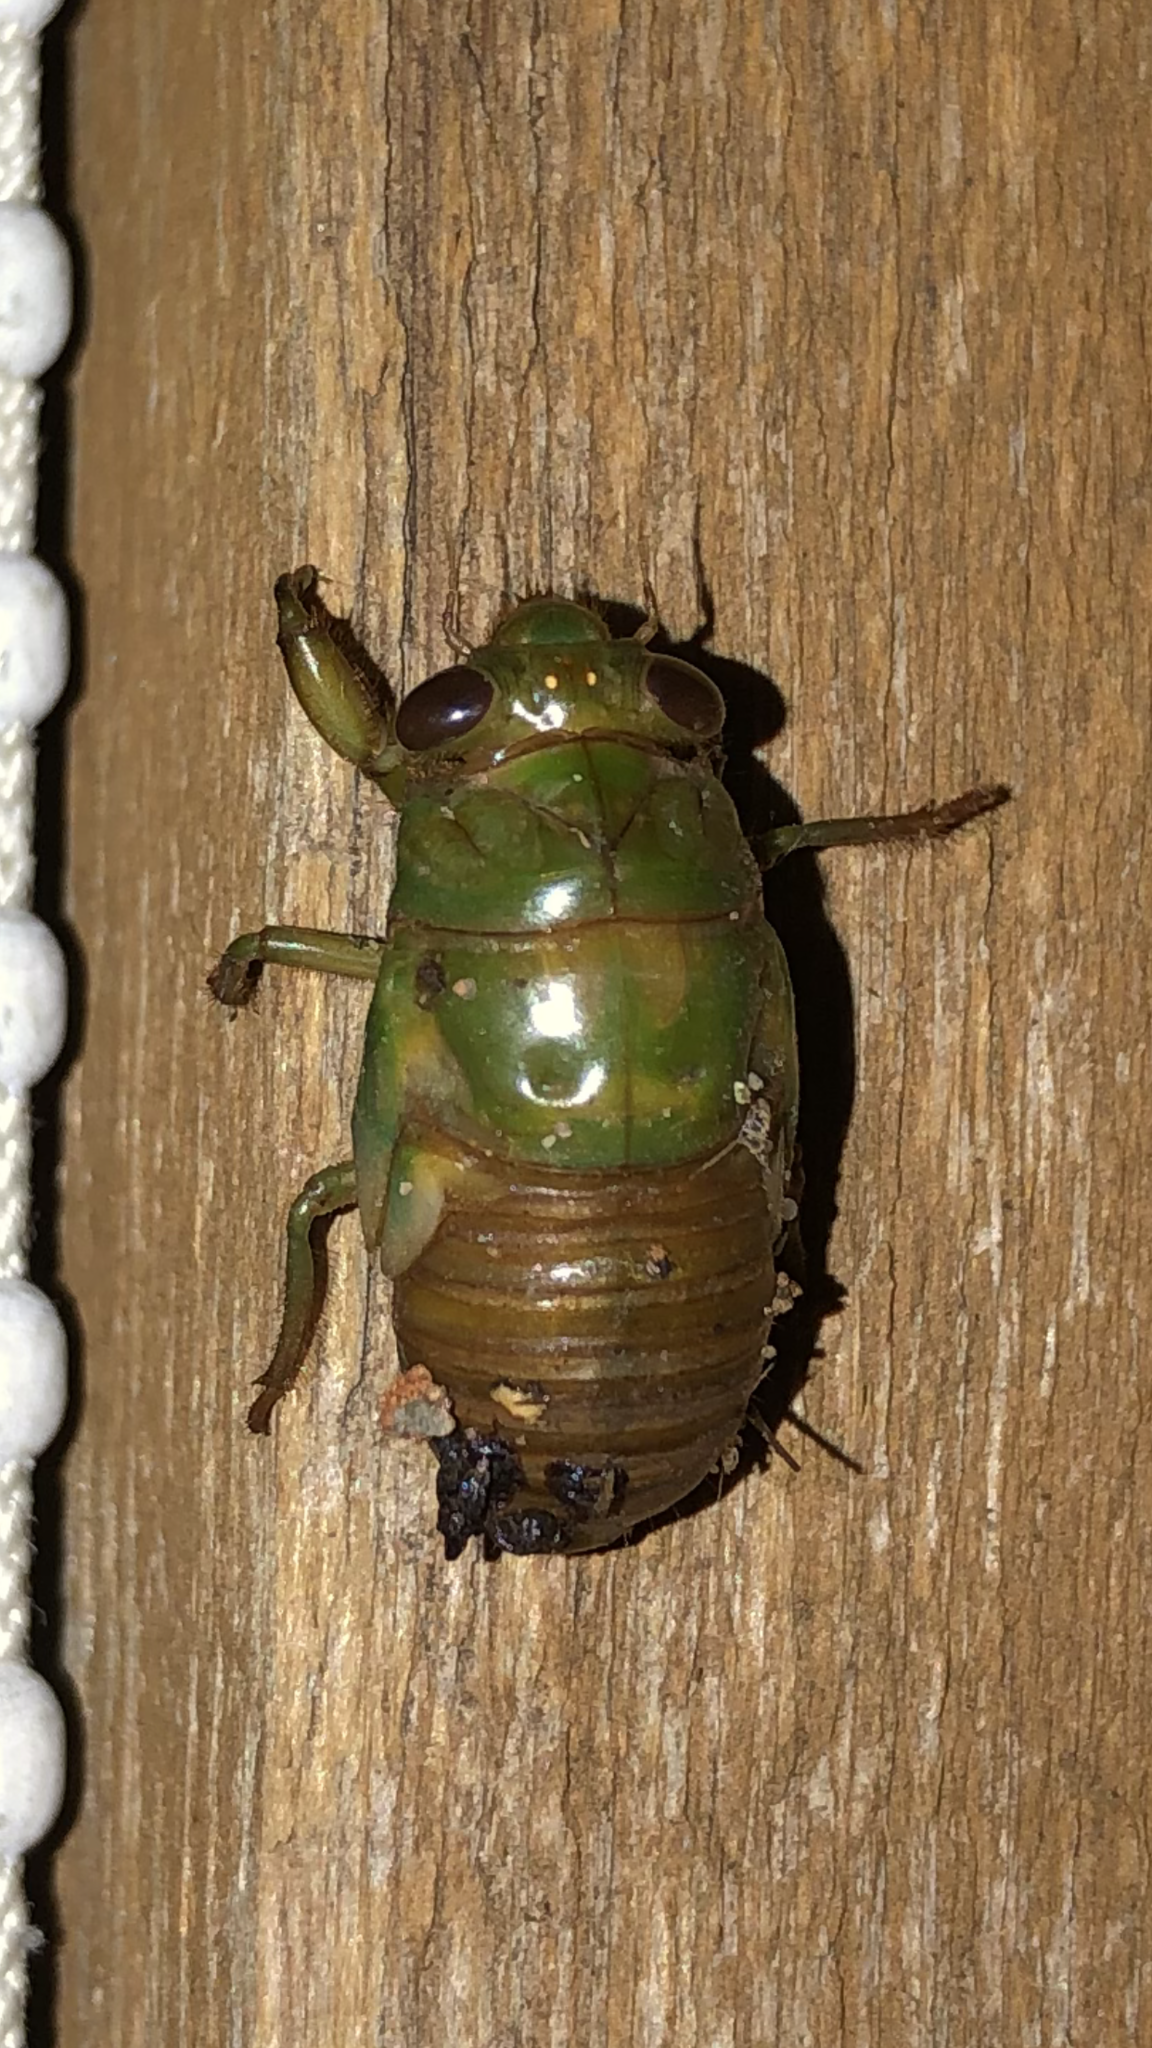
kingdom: Animalia
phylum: Arthropoda
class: Insecta
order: Hemiptera
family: Cicadidae
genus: Neotibicen
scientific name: Neotibicen superbus
